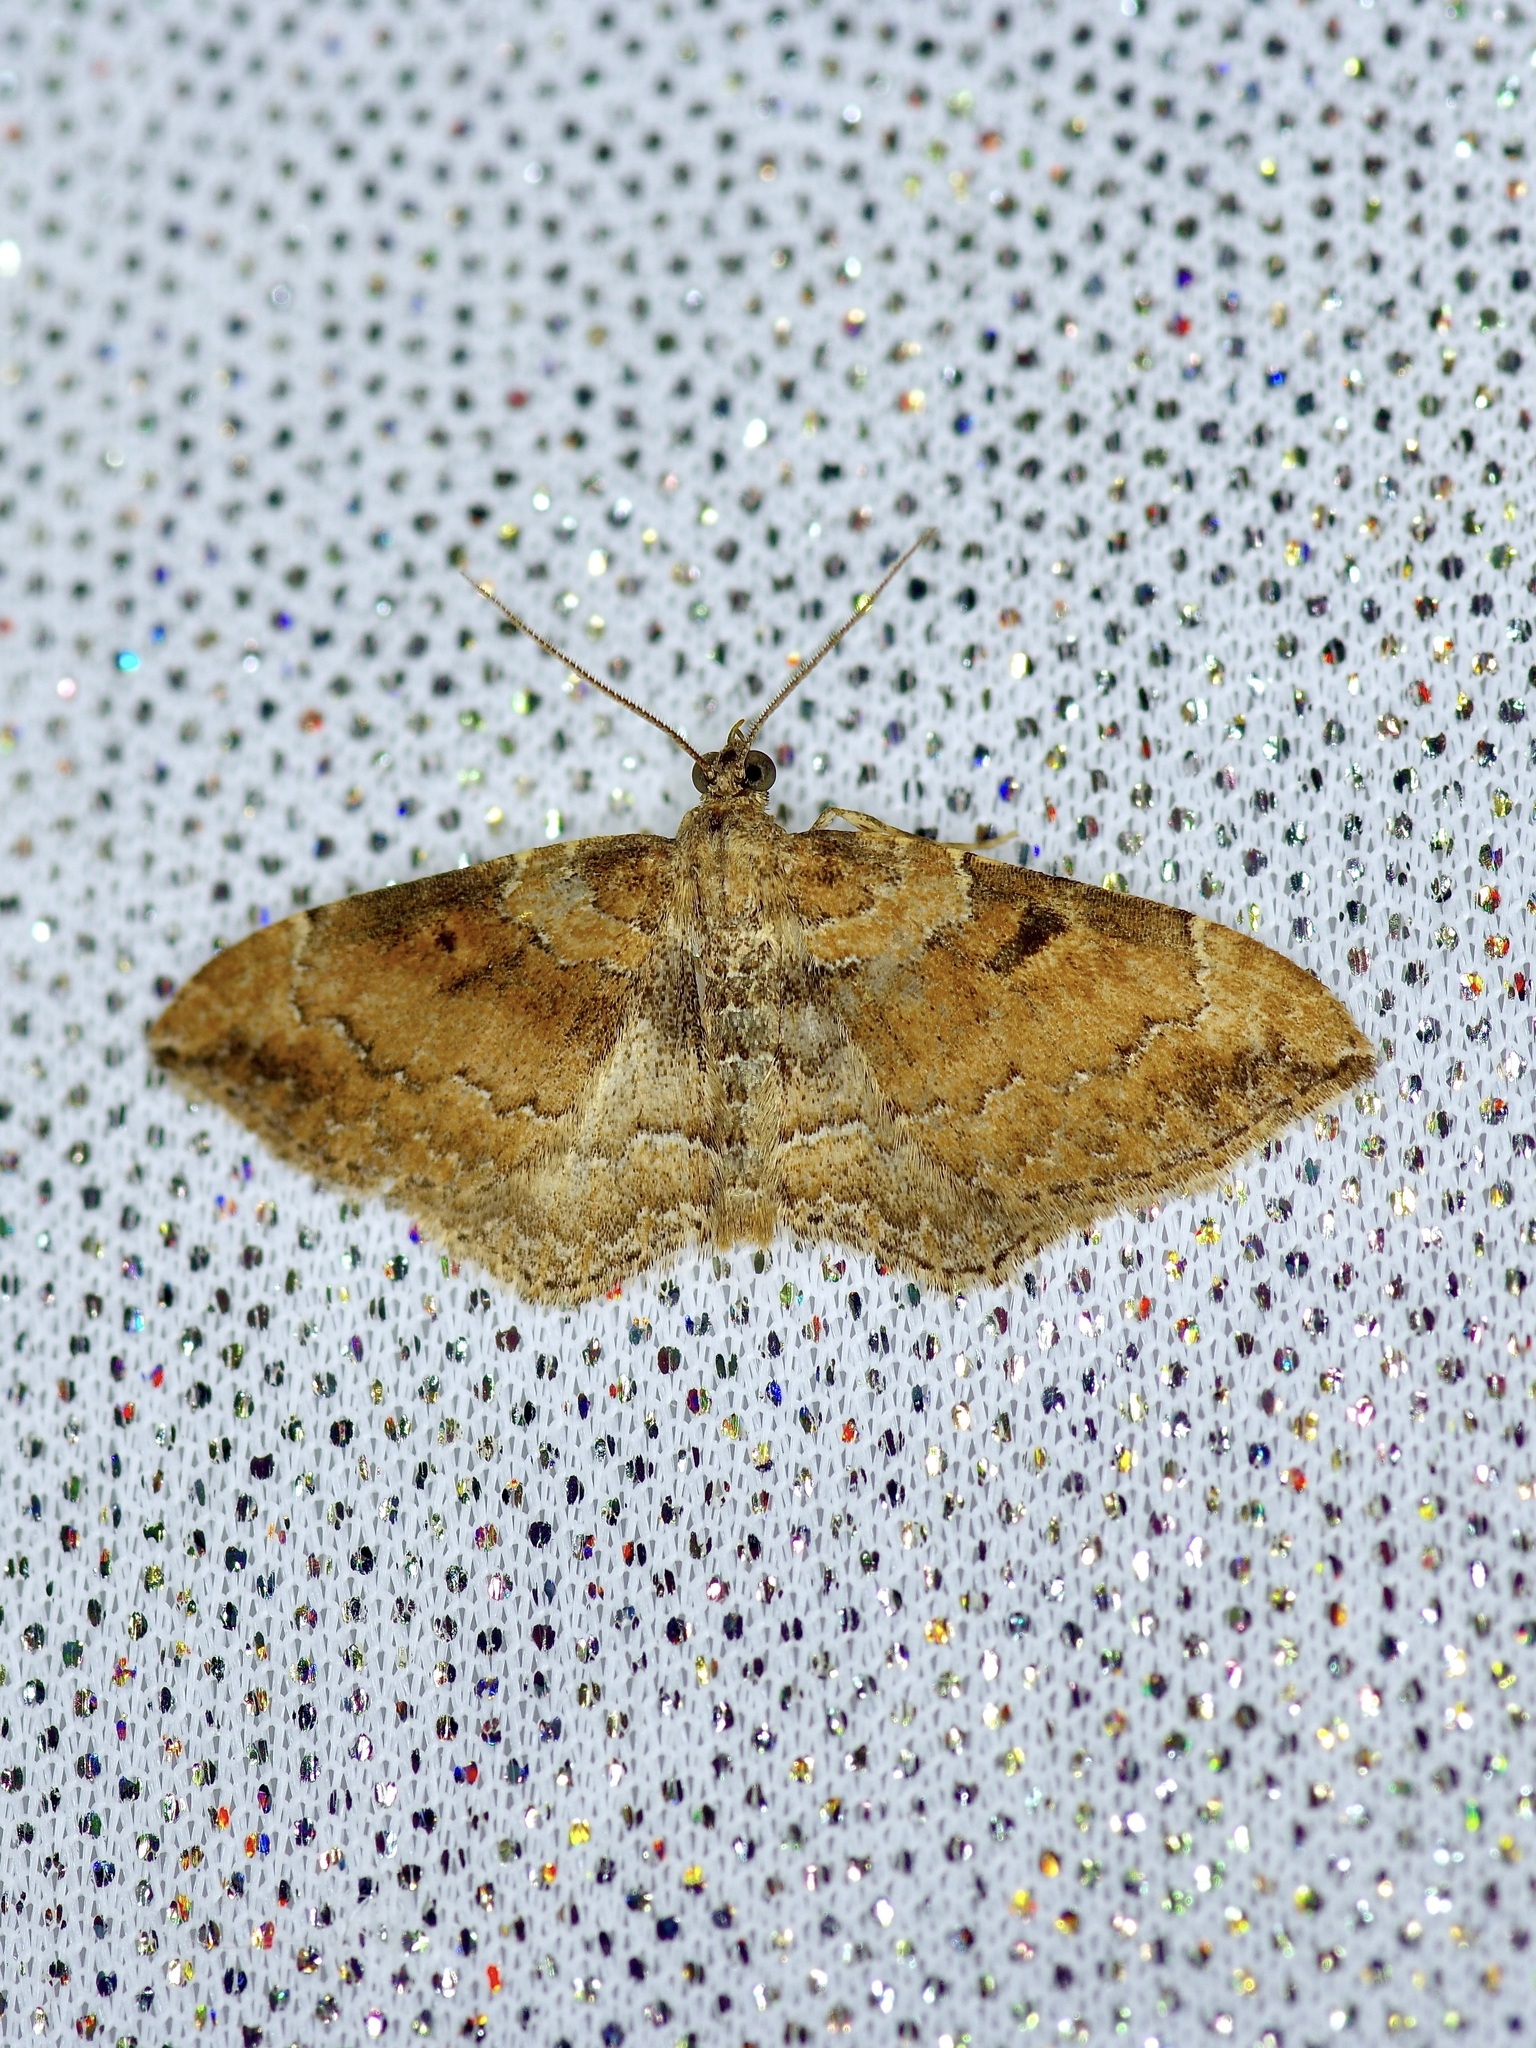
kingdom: Animalia
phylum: Arthropoda
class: Insecta
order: Lepidoptera
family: Geometridae
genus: Orthonama
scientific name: Orthonama obstipata
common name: The gem
